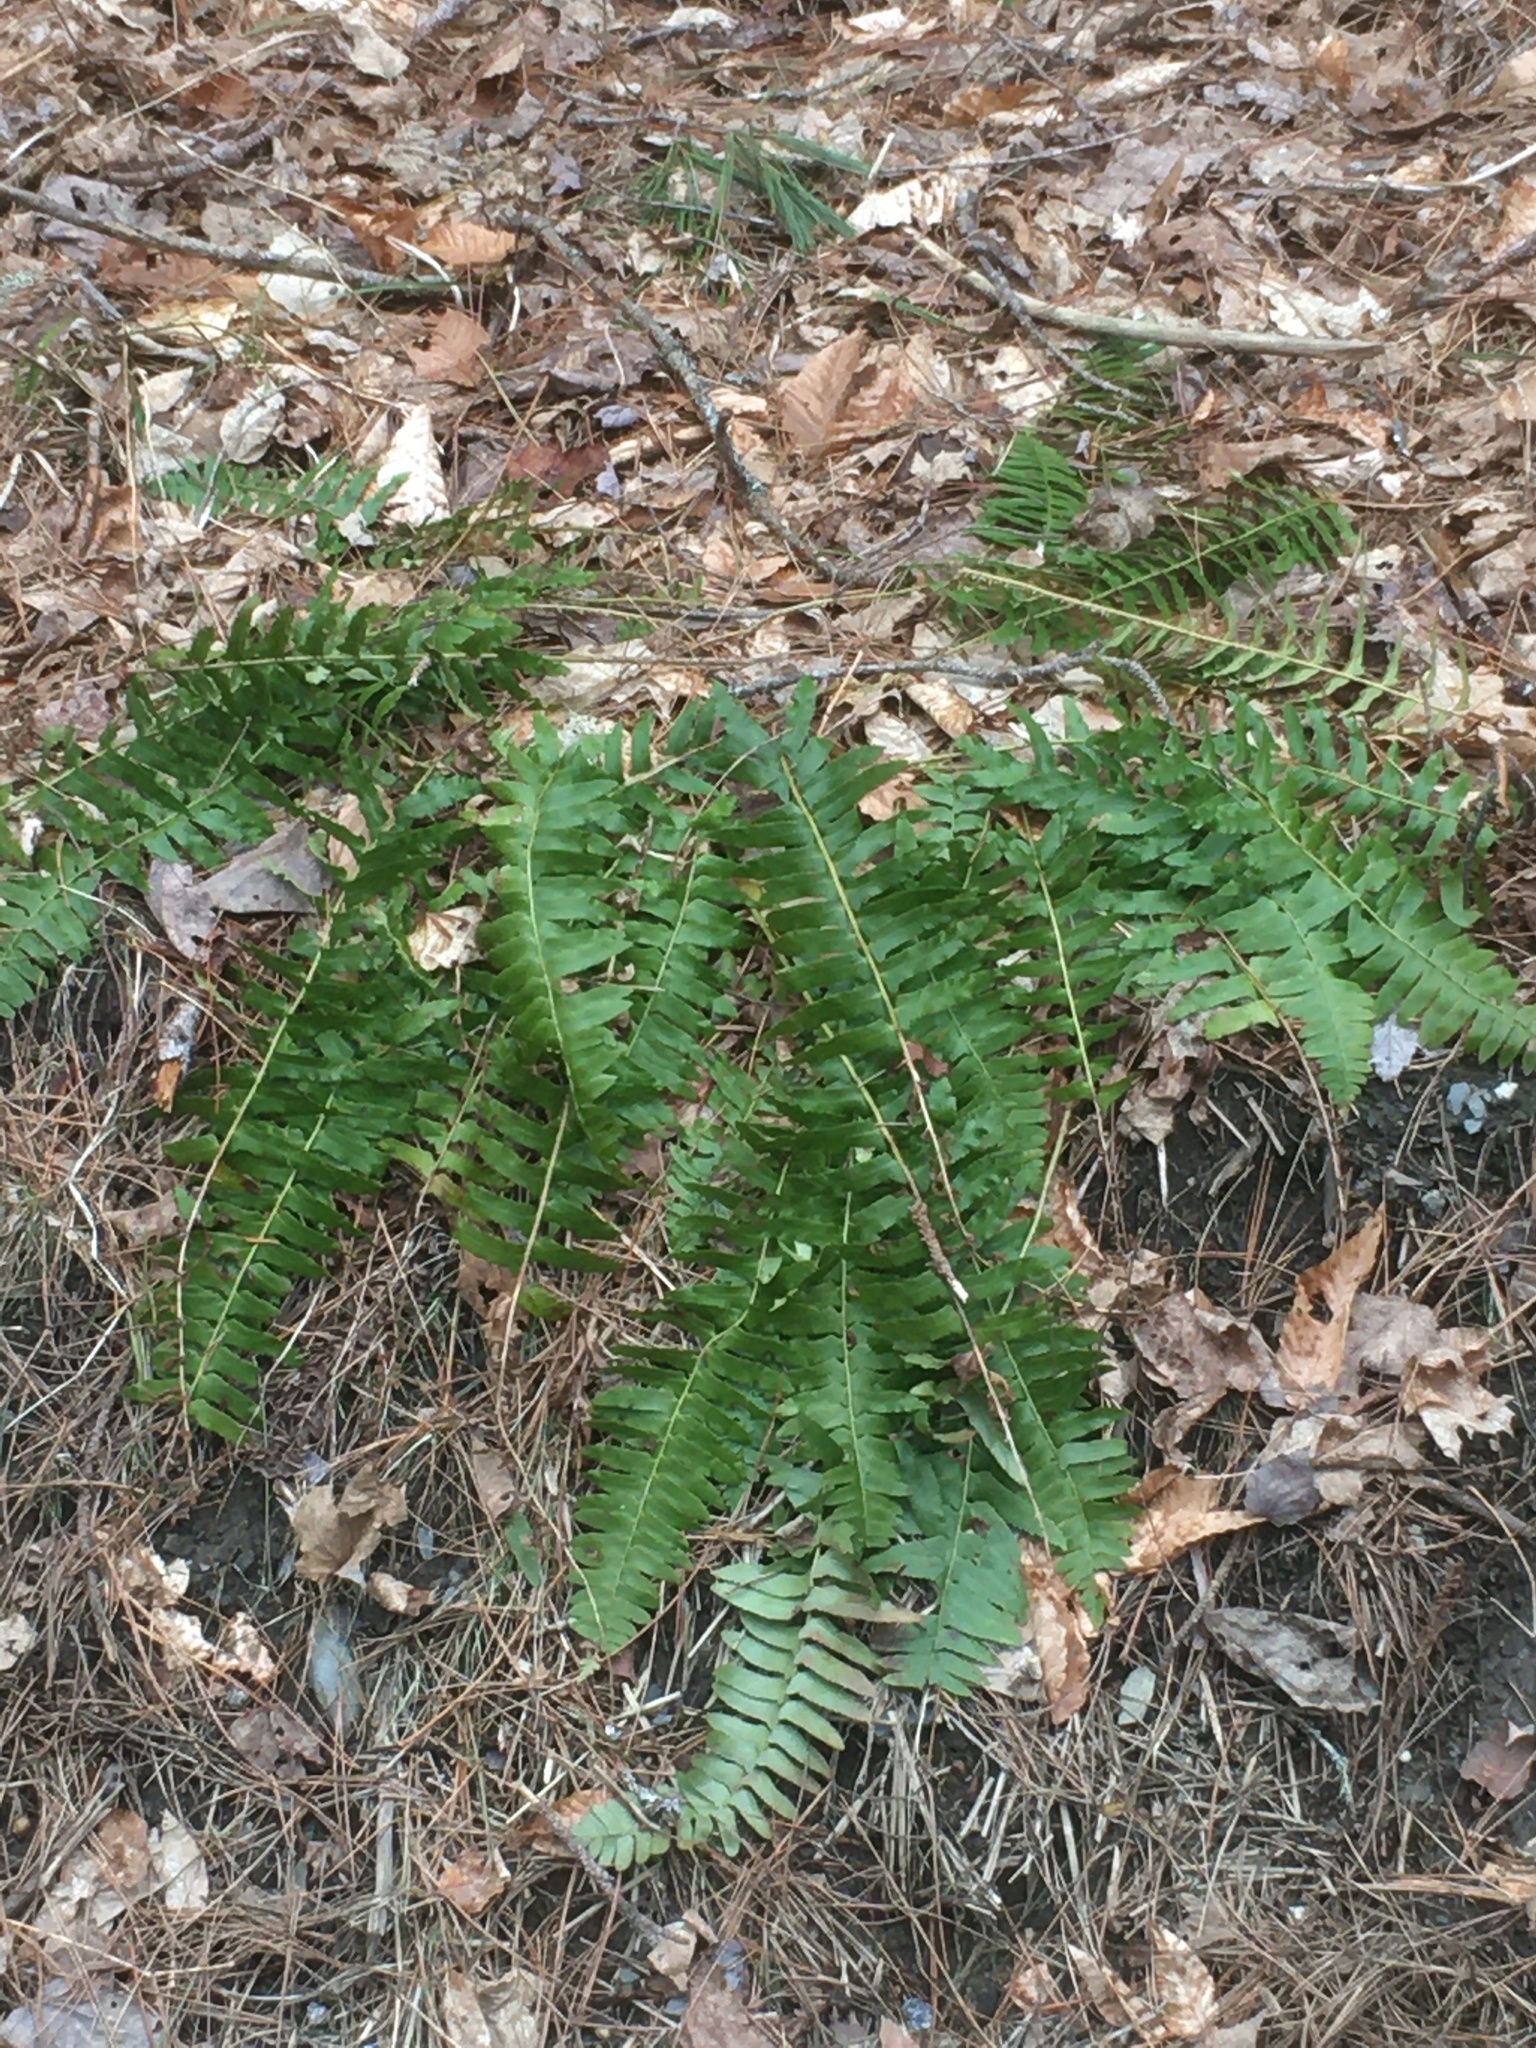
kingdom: Plantae
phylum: Tracheophyta
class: Polypodiopsida
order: Polypodiales
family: Dryopteridaceae
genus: Polystichum
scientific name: Polystichum acrostichoides
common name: Christmas fern
